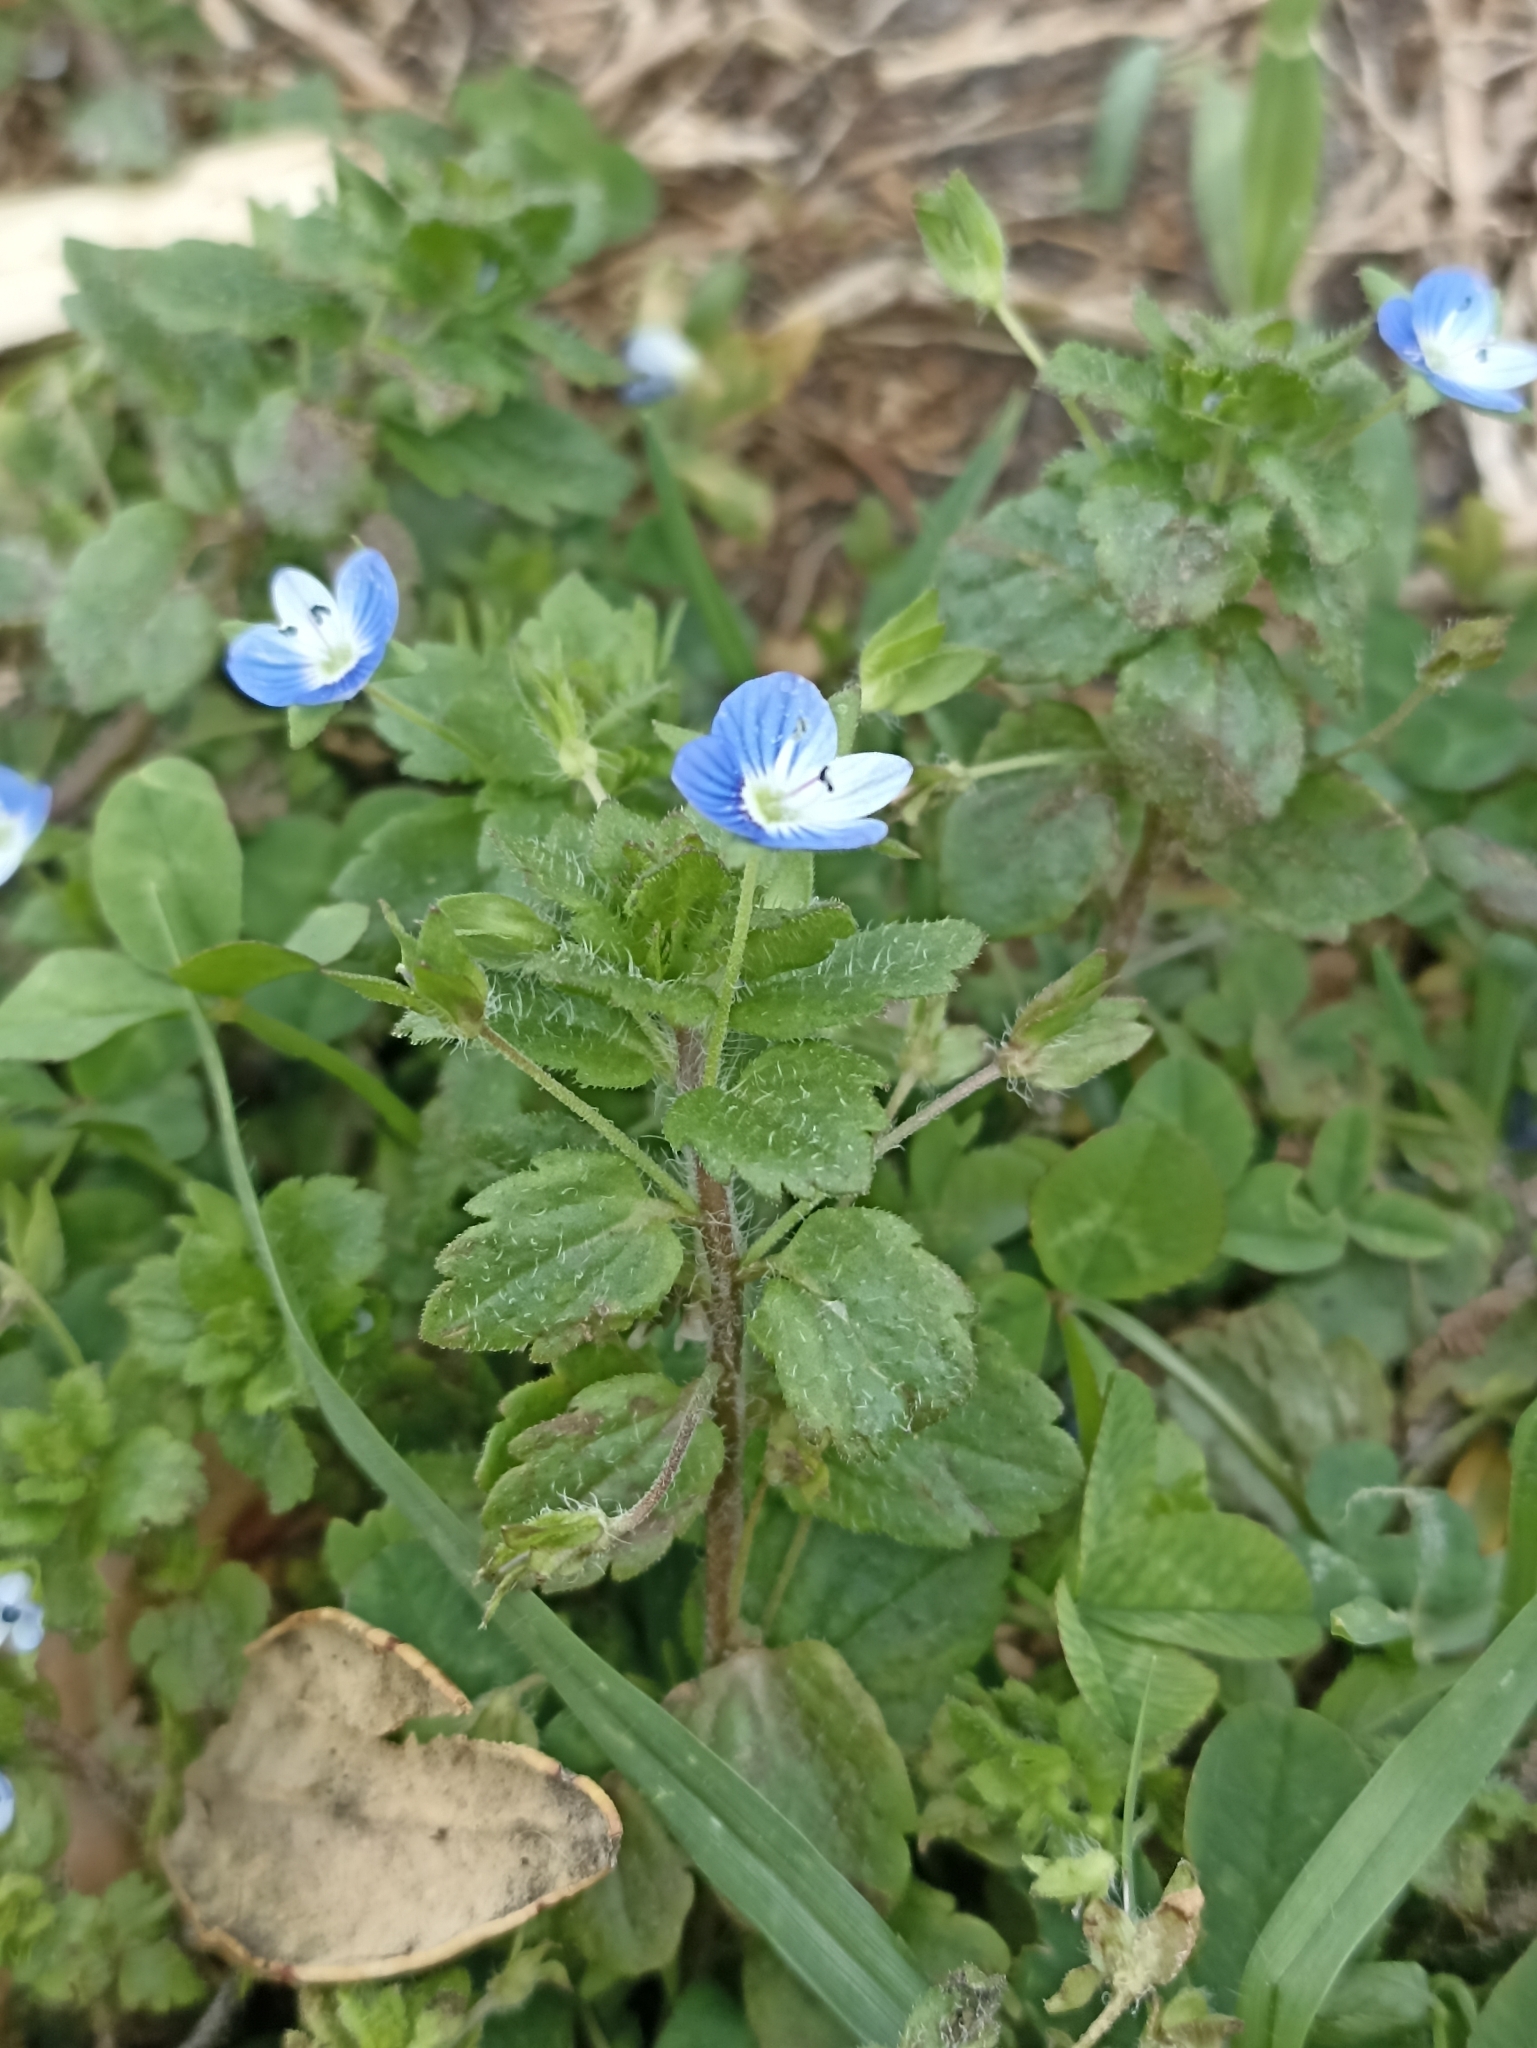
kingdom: Plantae
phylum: Tracheophyta
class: Magnoliopsida
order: Lamiales
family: Plantaginaceae
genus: Veronica
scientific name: Veronica persica
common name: Common field-speedwell
